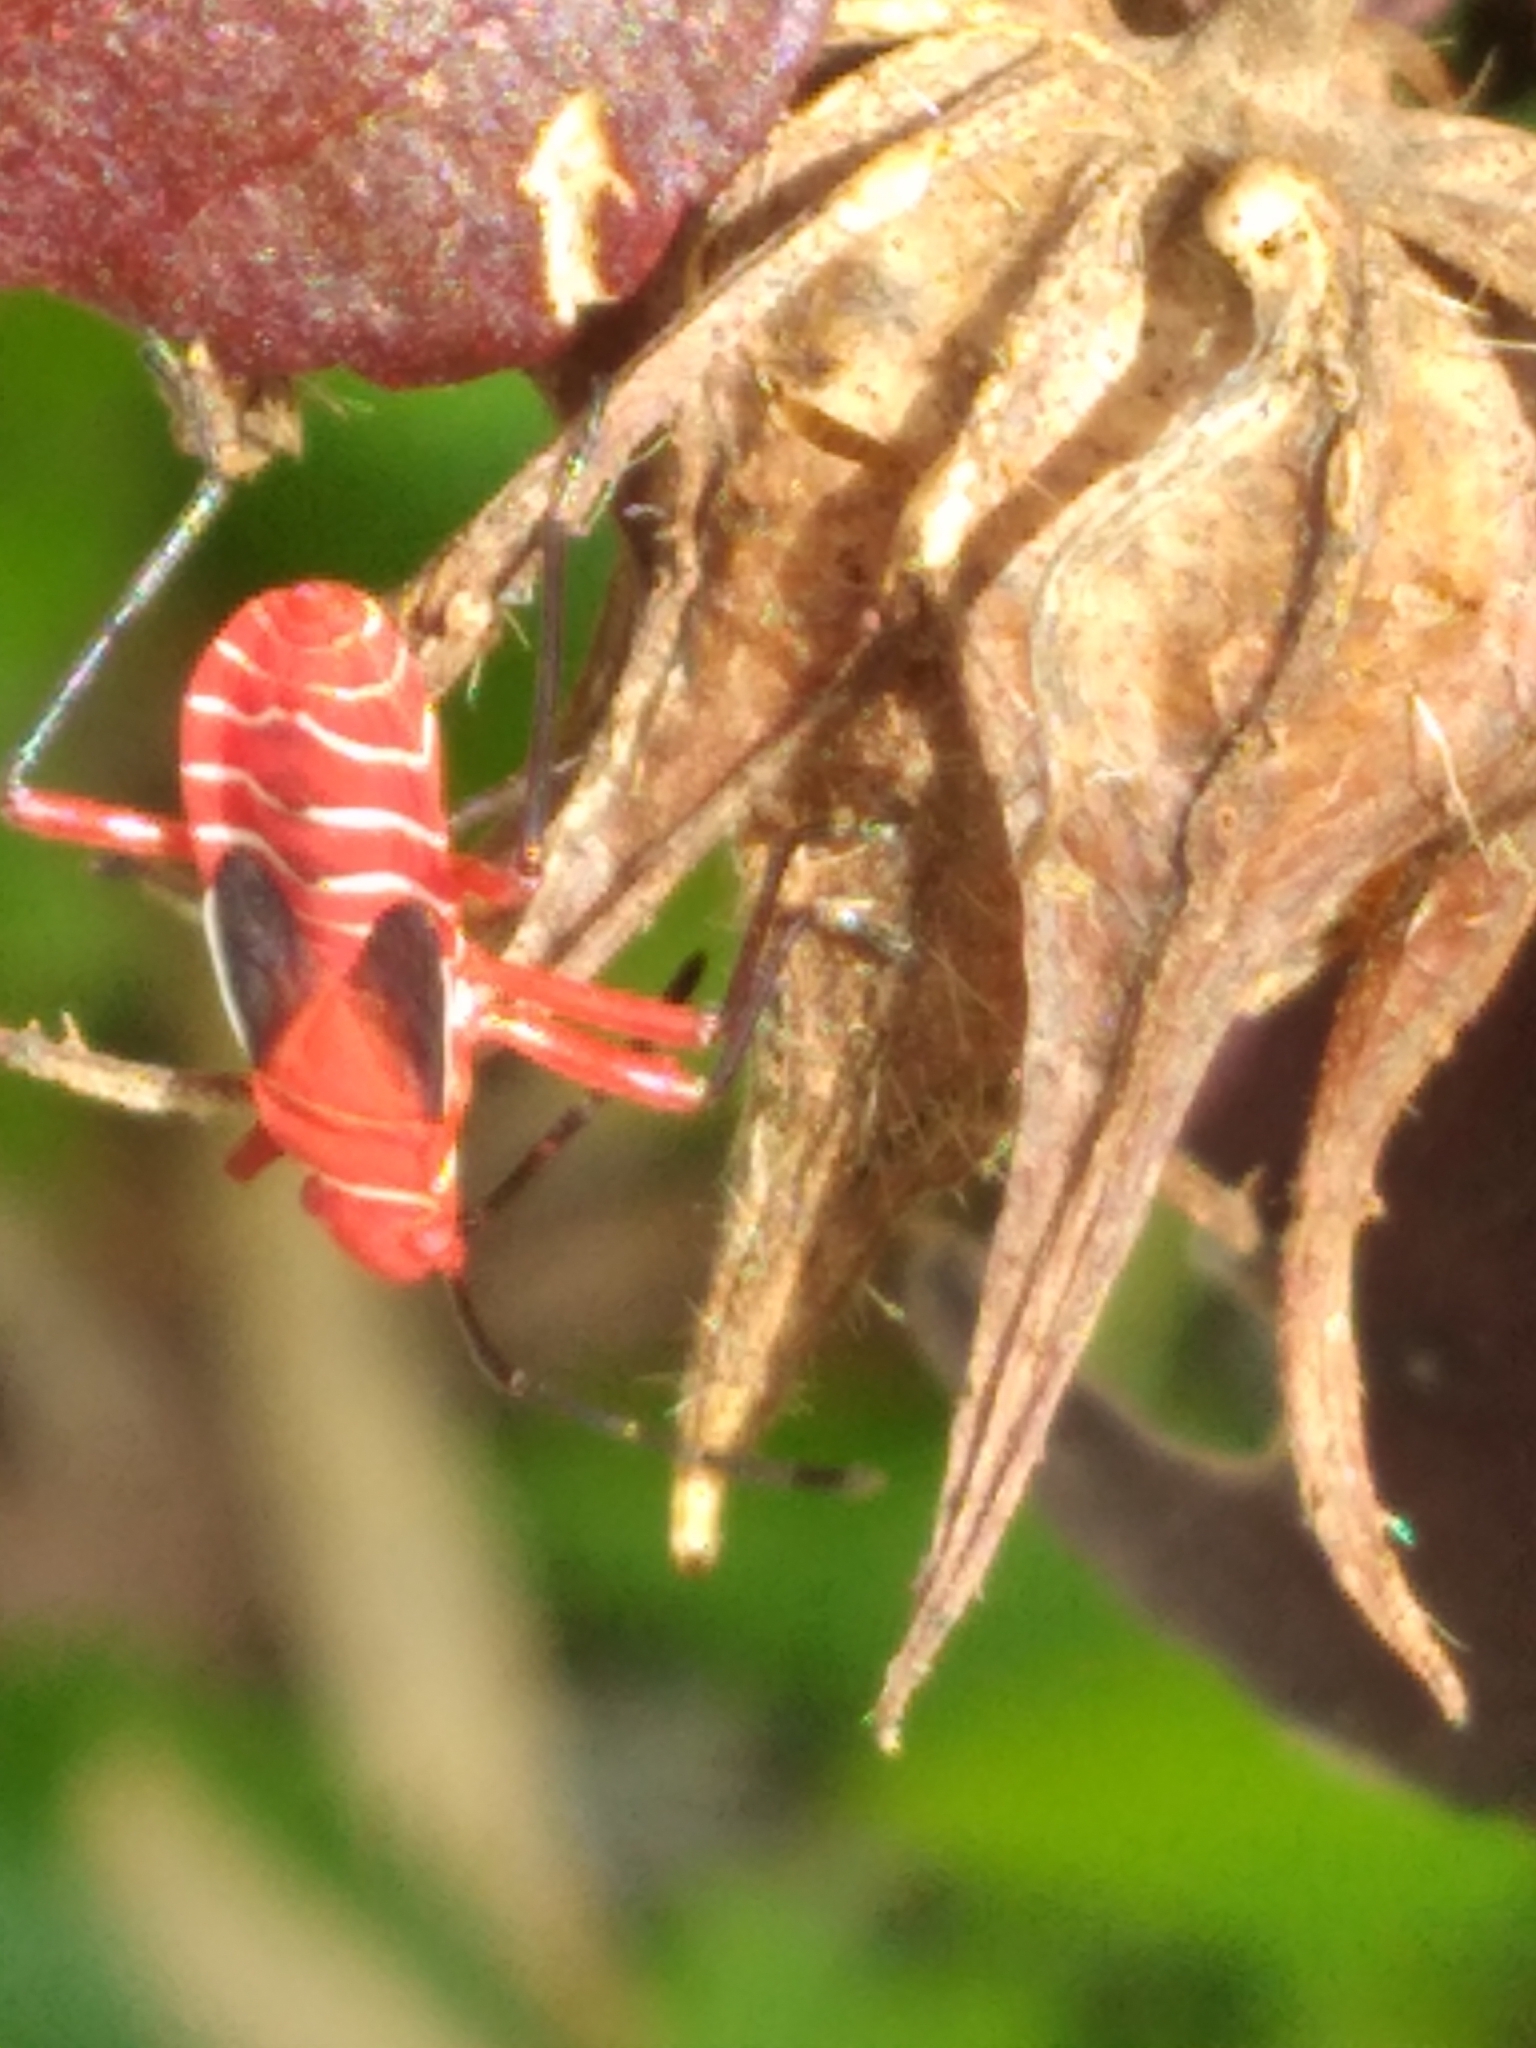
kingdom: Animalia
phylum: Arthropoda
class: Insecta
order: Hemiptera
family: Pyrrhocoridae
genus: Dysdercus
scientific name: Dysdercus suturellus
